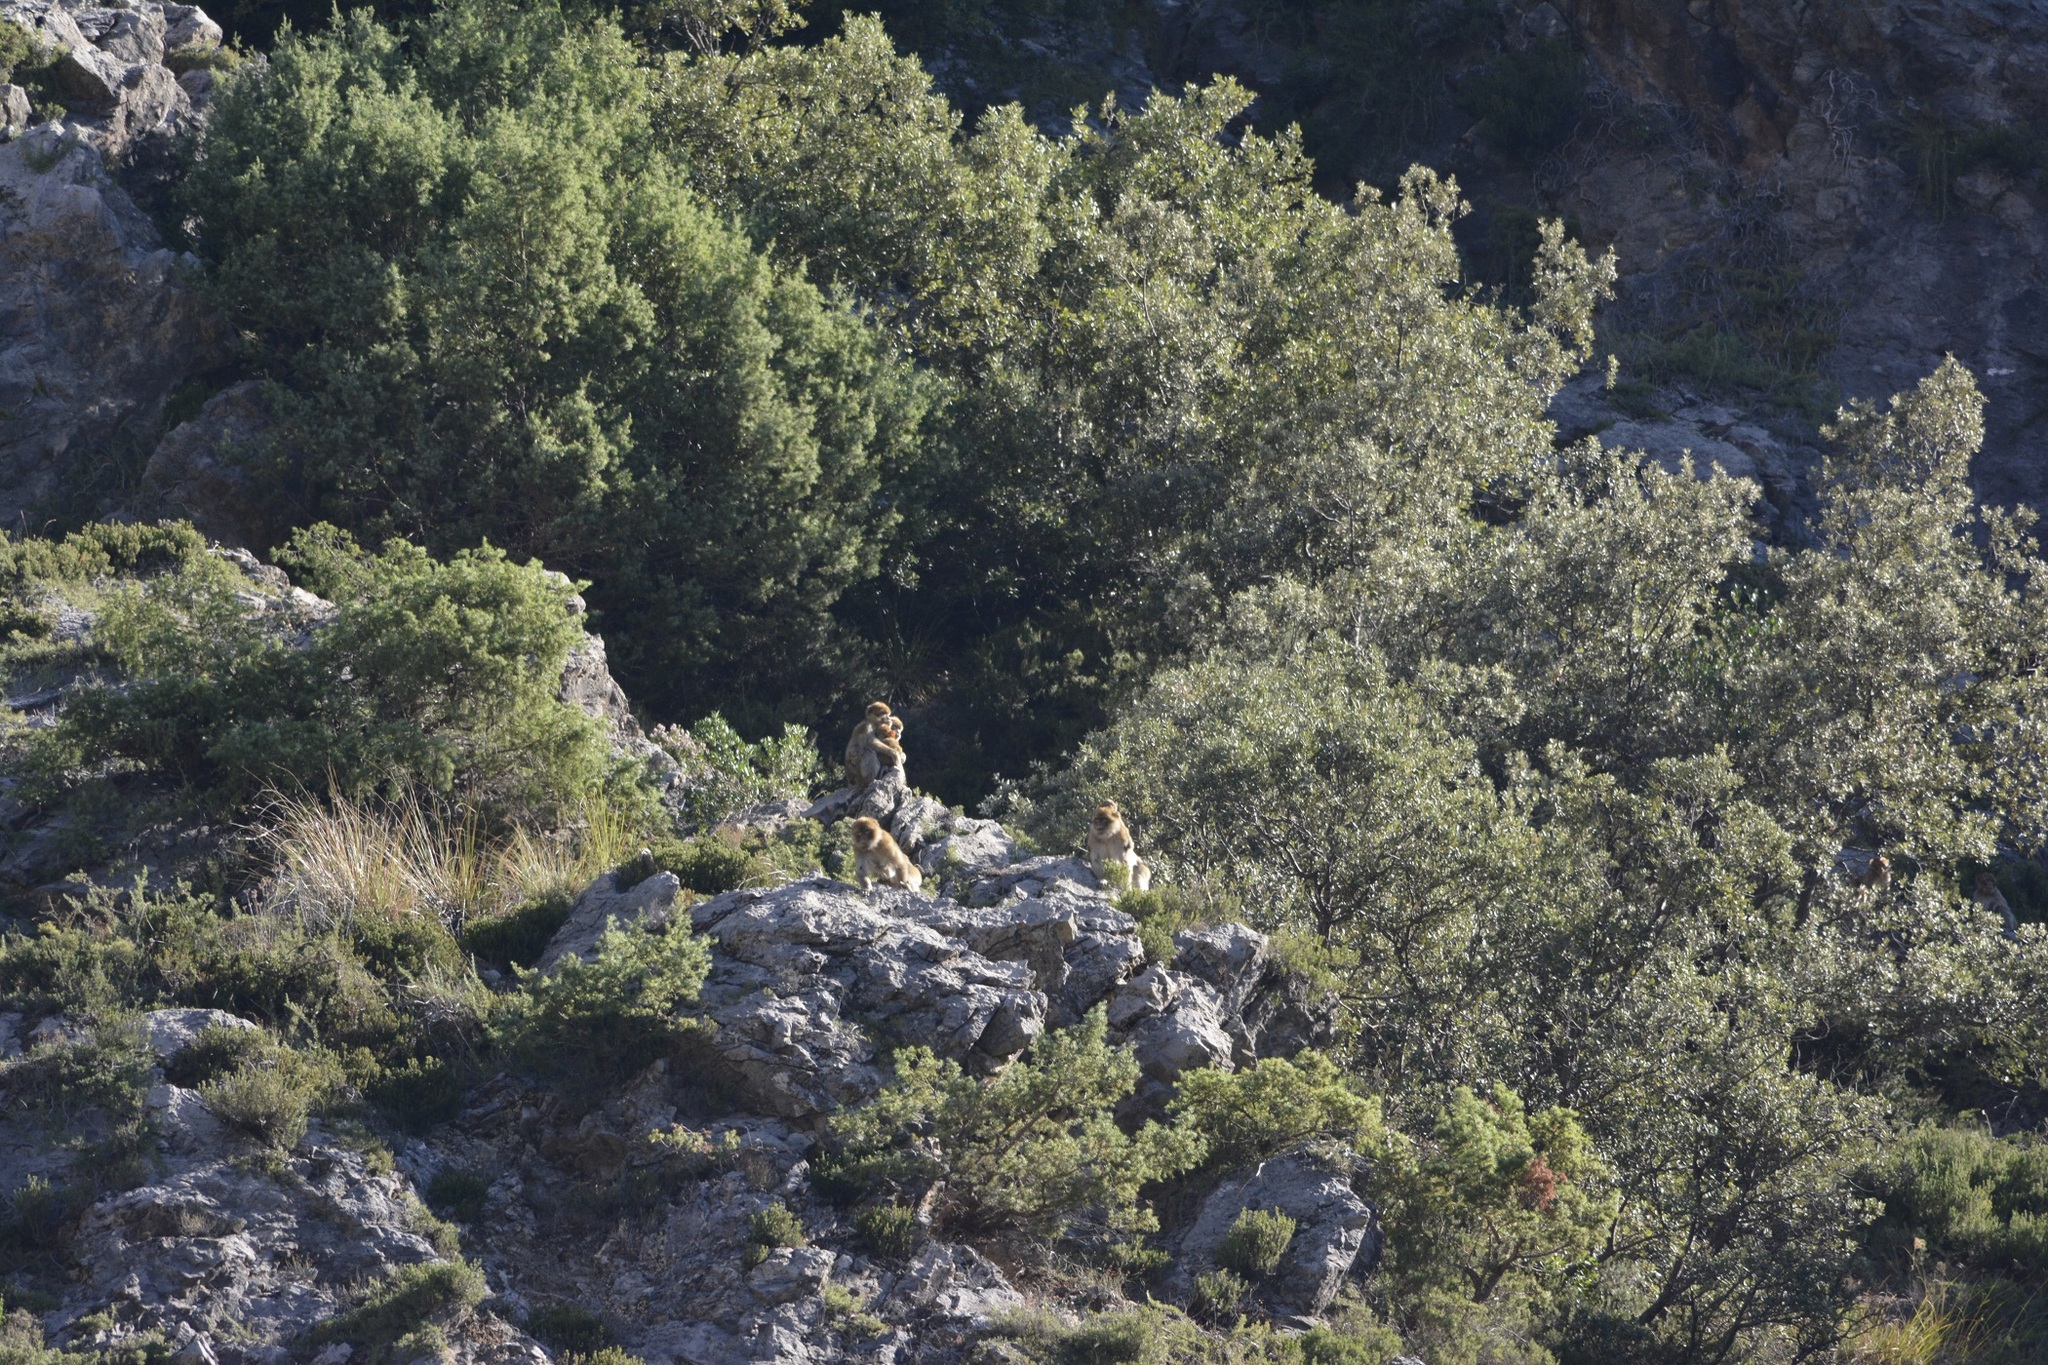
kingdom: Animalia
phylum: Chordata
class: Mammalia
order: Primates
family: Cercopithecidae
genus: Macaca
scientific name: Macaca sylvanus
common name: Barbary macaque
